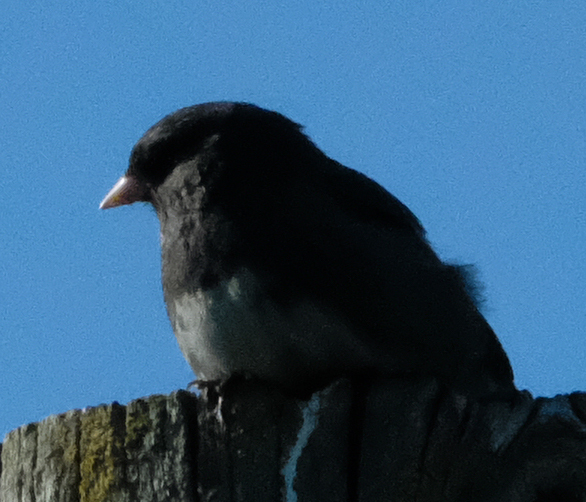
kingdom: Animalia
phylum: Chordata
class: Aves
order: Passeriformes
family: Passerellidae
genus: Junco
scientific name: Junco hyemalis
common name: Dark-eyed junco
